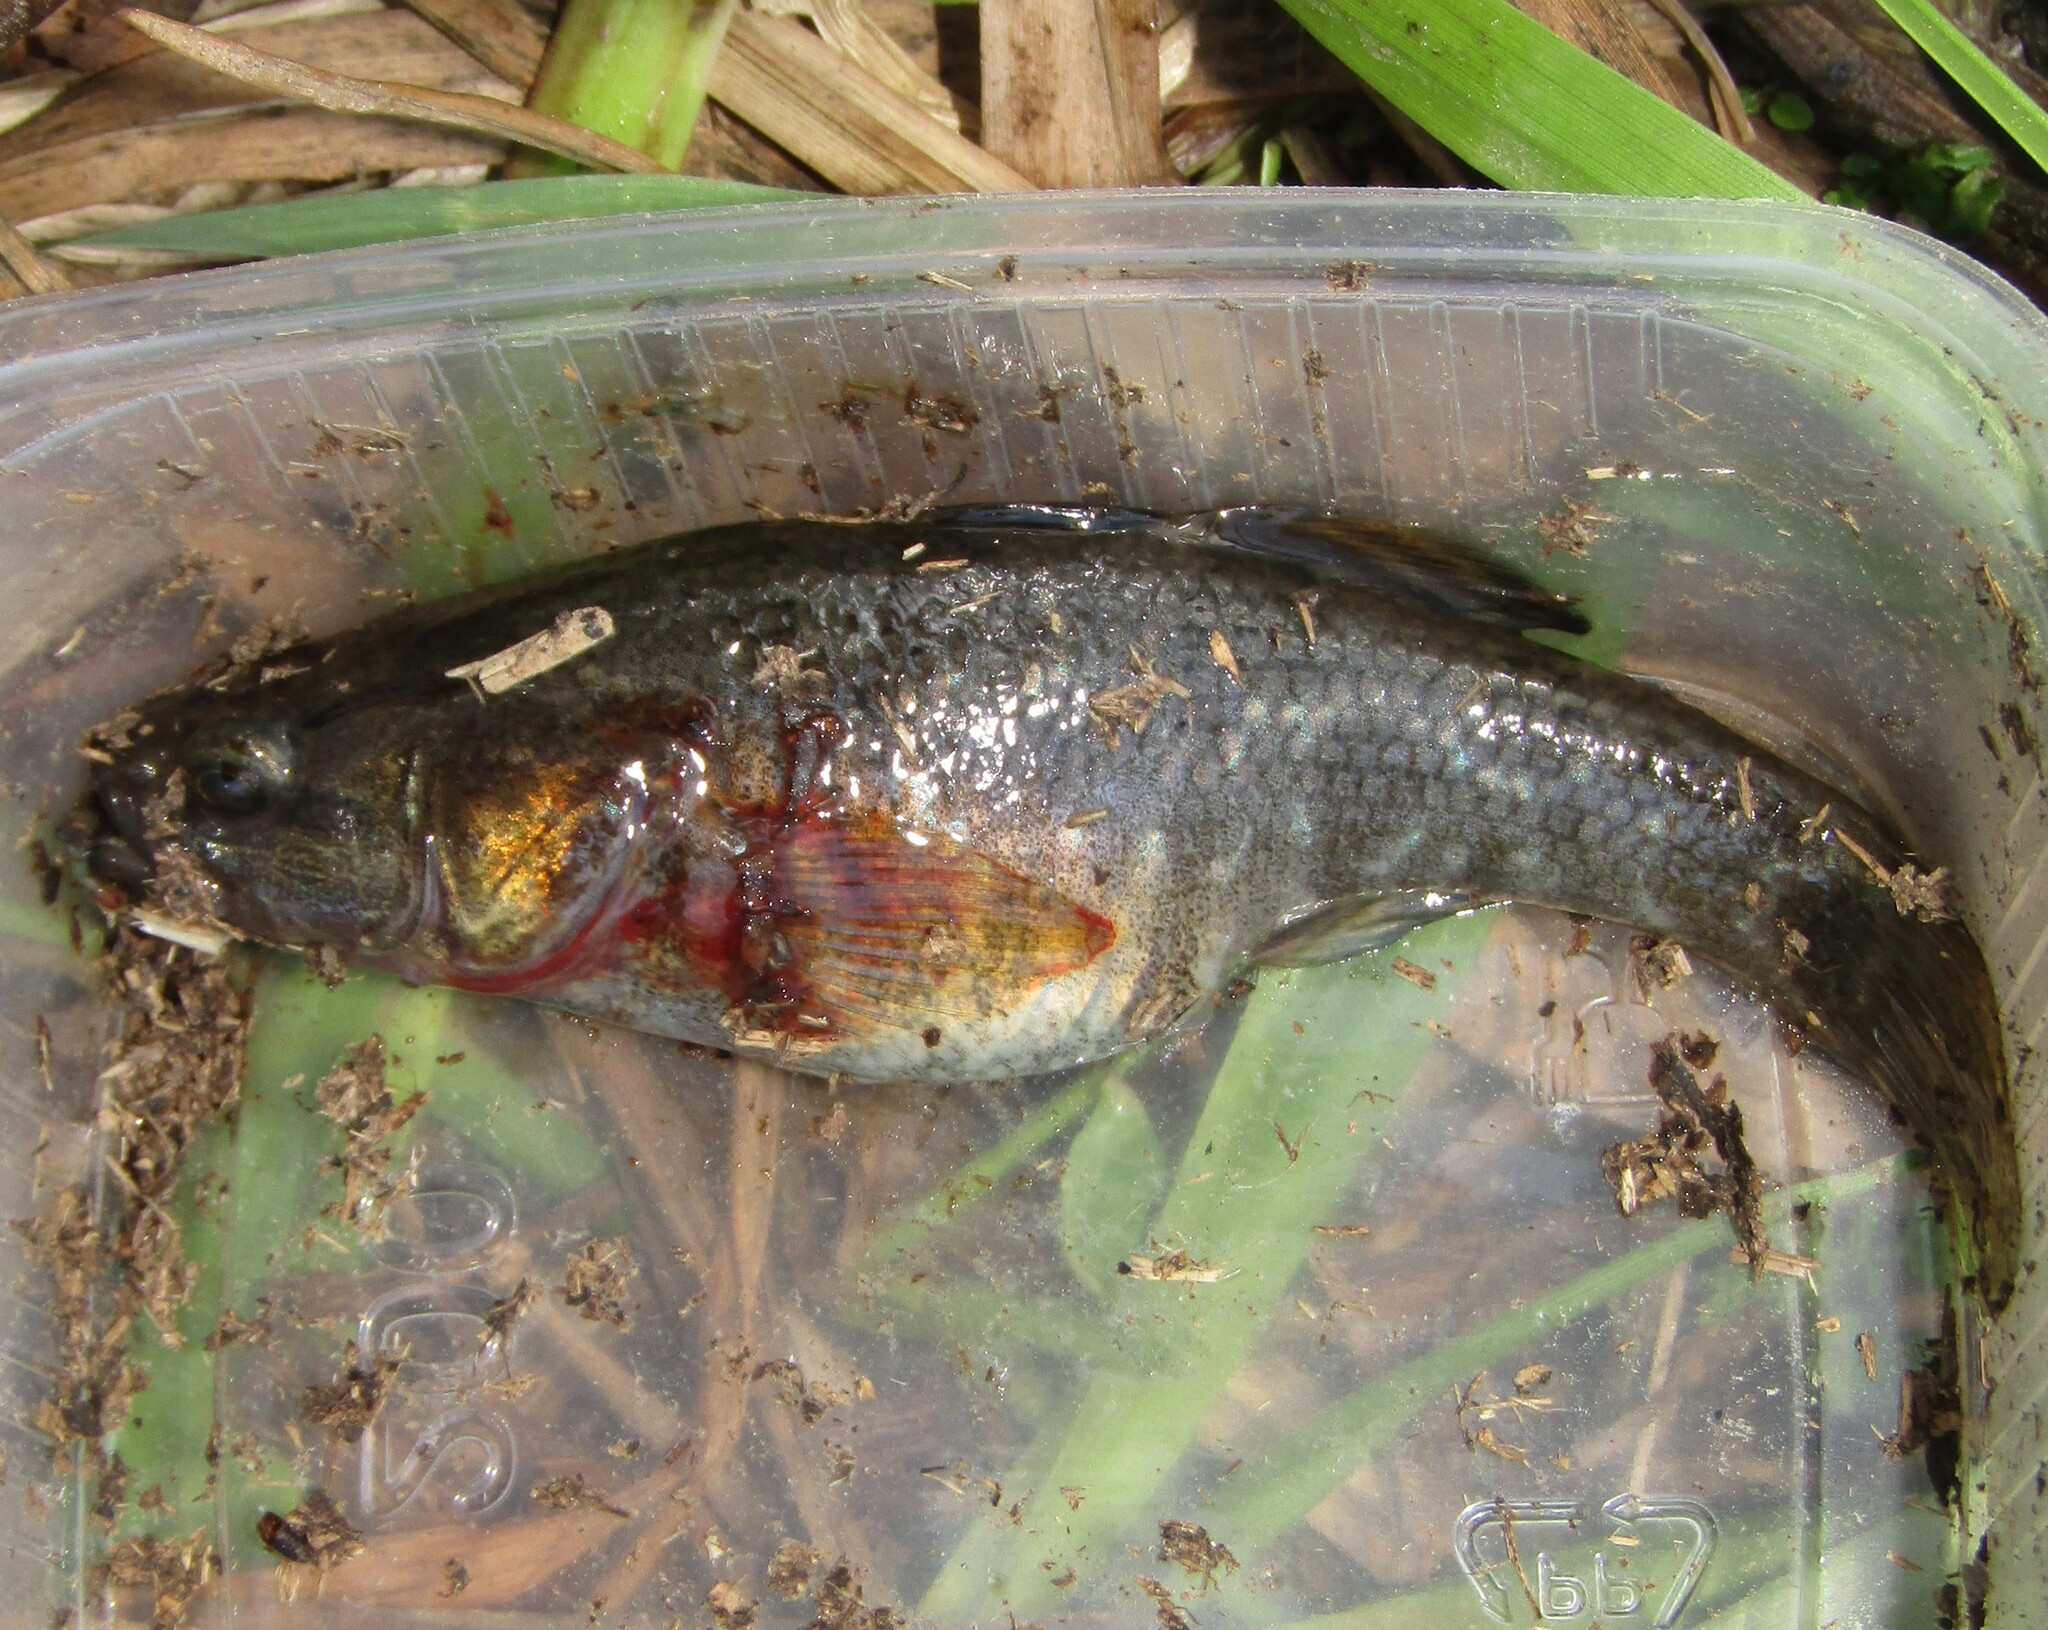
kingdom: Animalia
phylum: Chordata
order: Perciformes
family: Odontobutidae
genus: Perccottus
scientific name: Perccottus glenii
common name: Amur sleeper
